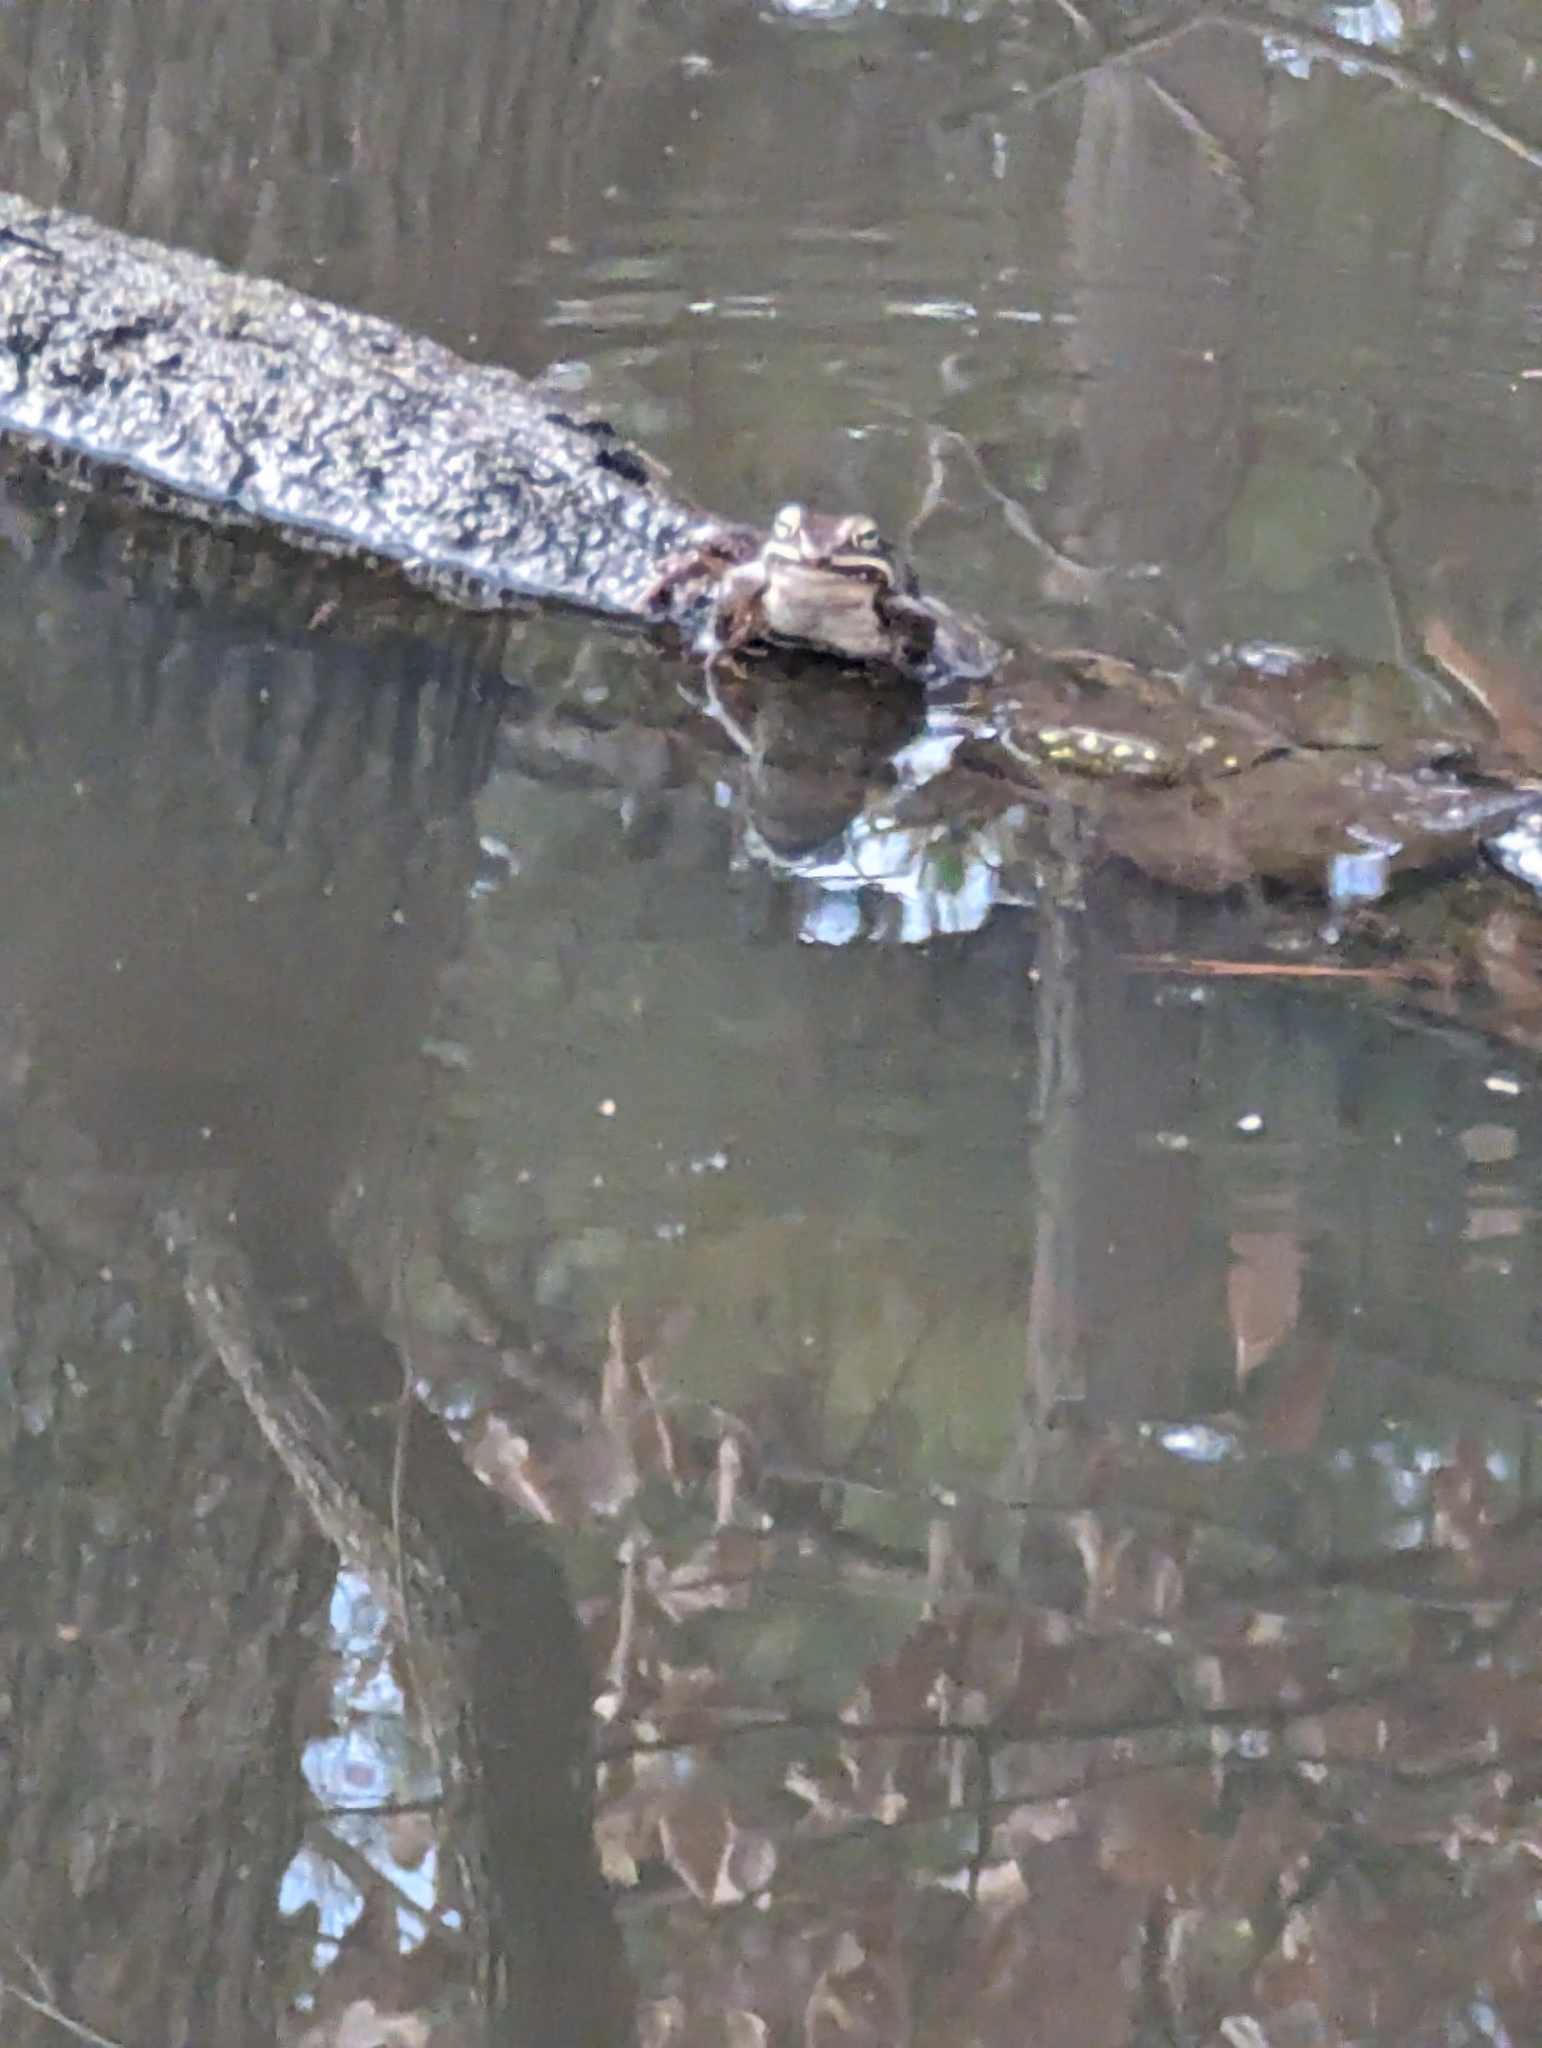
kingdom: Animalia
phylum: Chordata
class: Amphibia
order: Anura
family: Ranidae
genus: Lithobates
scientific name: Lithobates sylvaticus
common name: Wood frog
